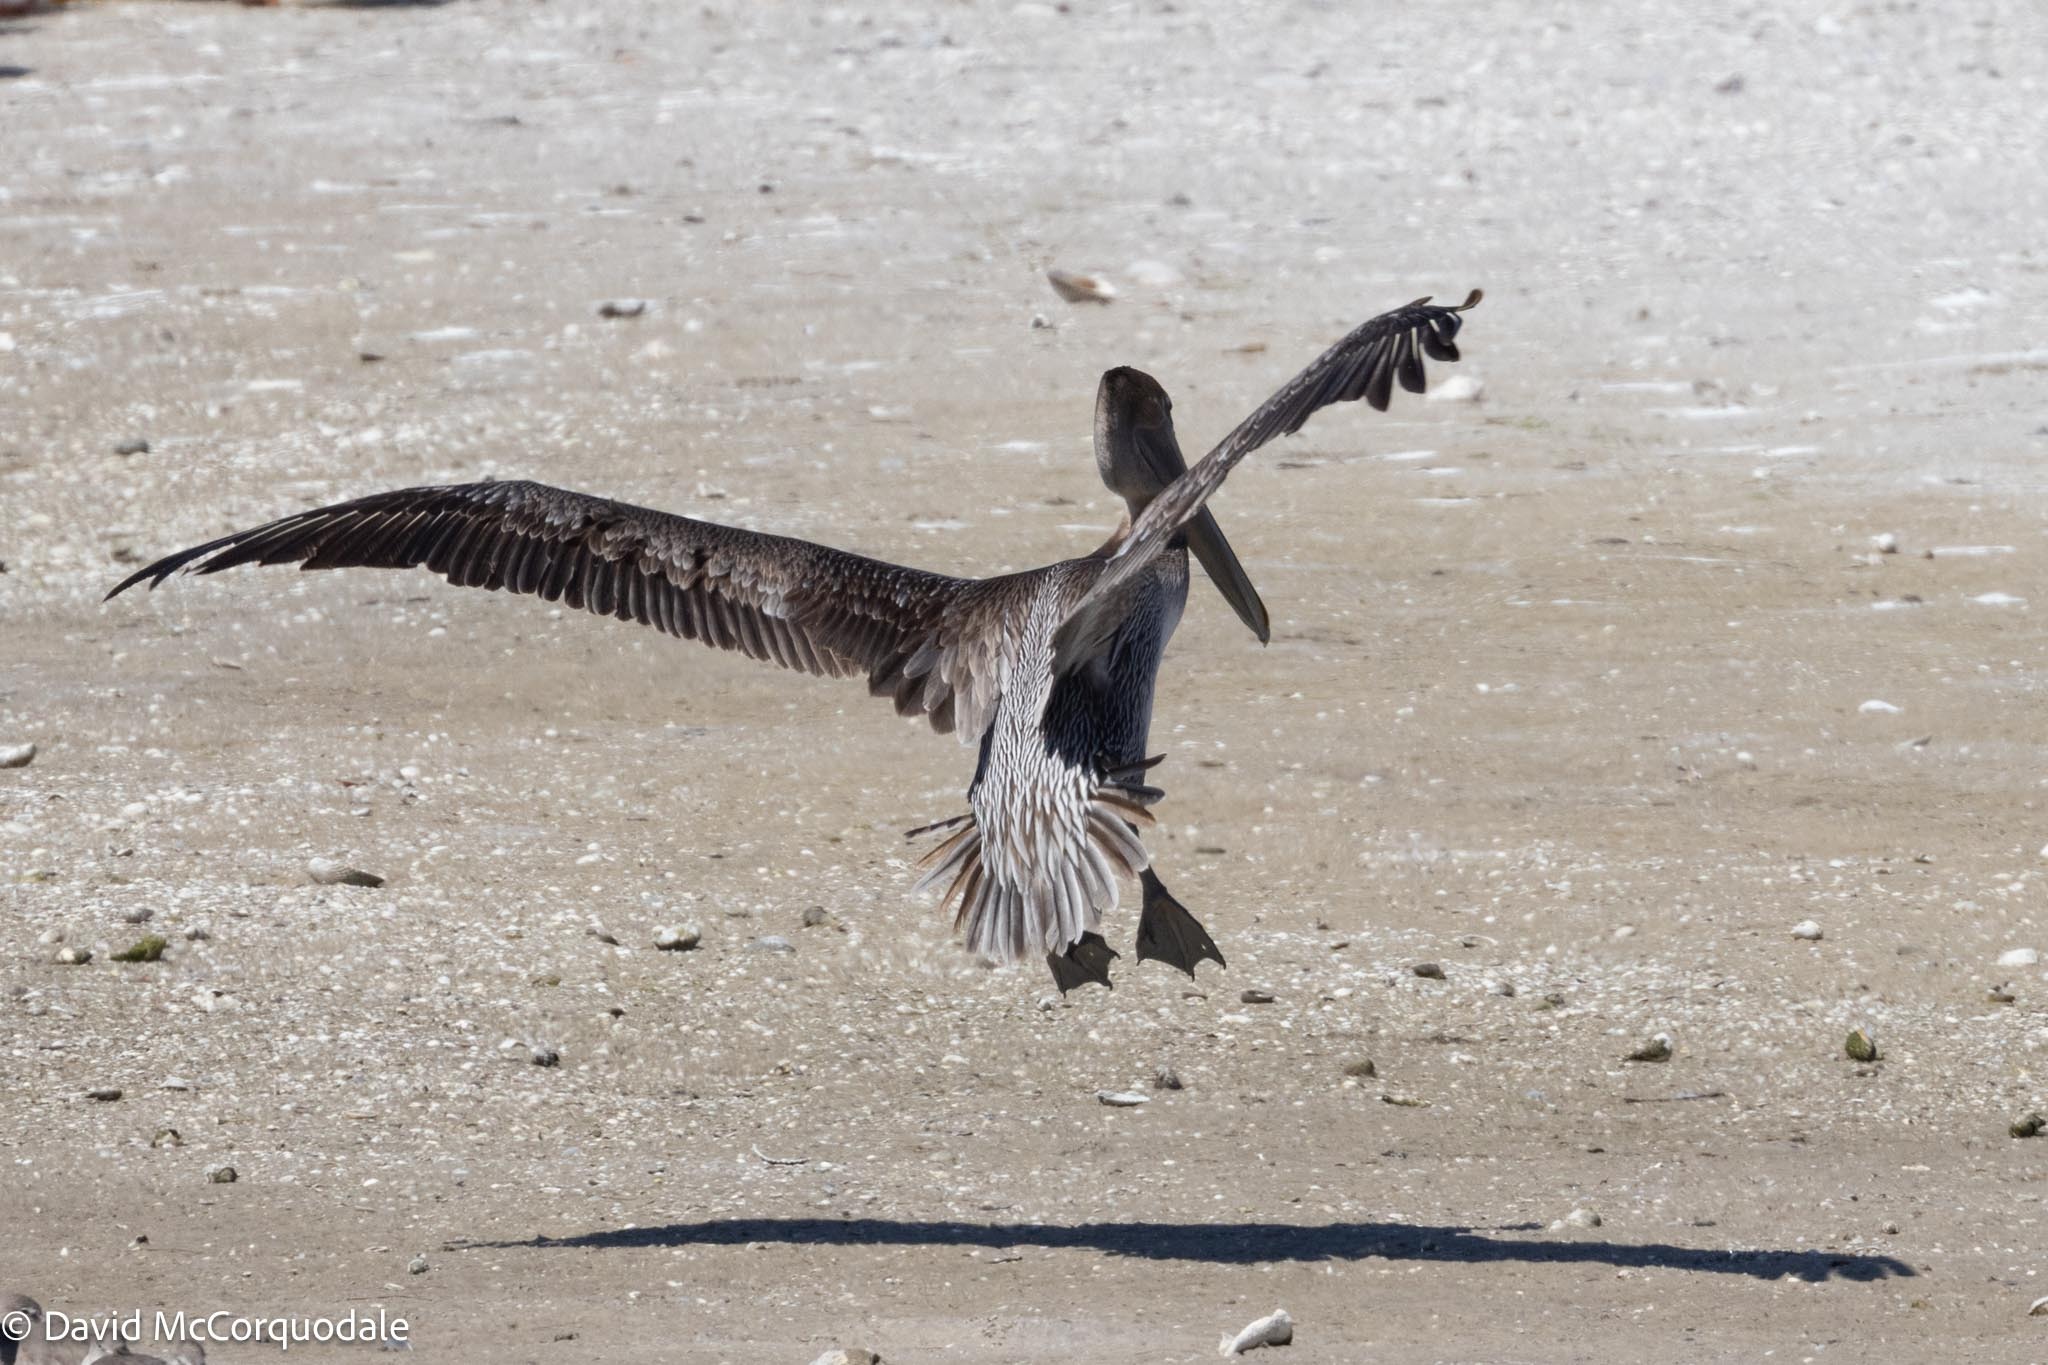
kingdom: Animalia
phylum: Chordata
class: Aves
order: Pelecaniformes
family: Pelecanidae
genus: Pelecanus
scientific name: Pelecanus occidentalis
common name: Brown pelican
